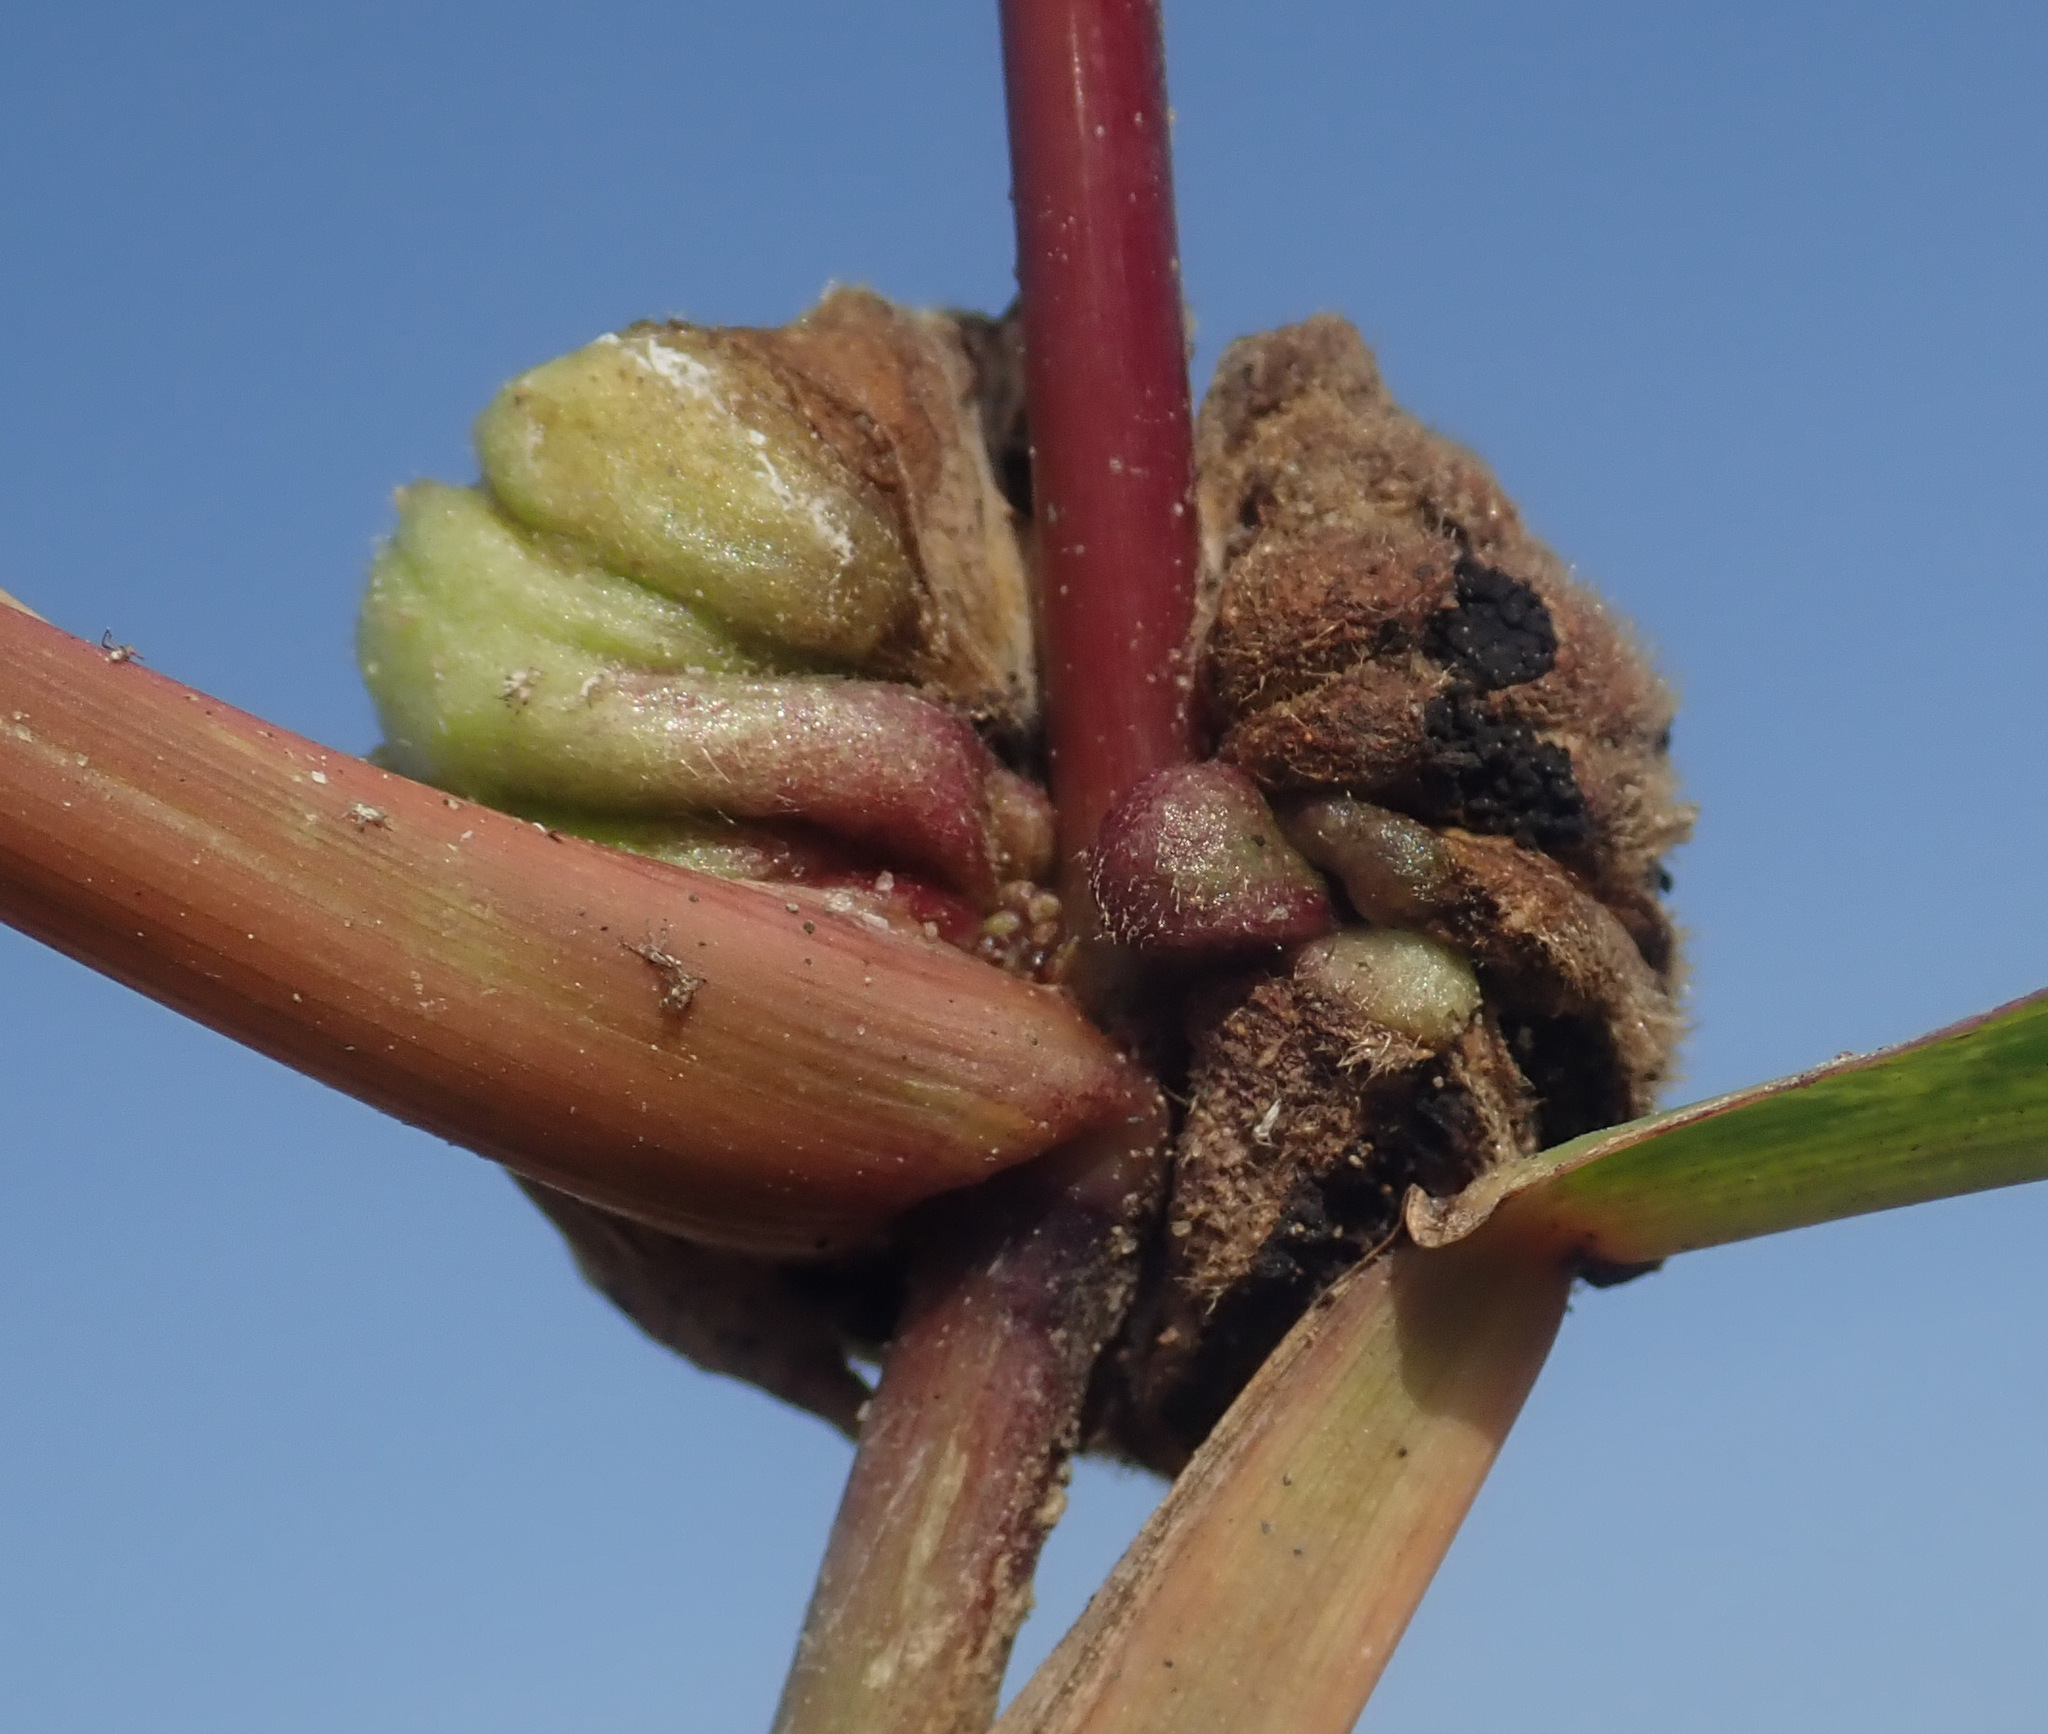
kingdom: Fungi
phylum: Basidiomycota
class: Ustilaginomycetes
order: Ustilaginales
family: Ustilaginaceae
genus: Ustilago
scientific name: Ustilago trichophora
